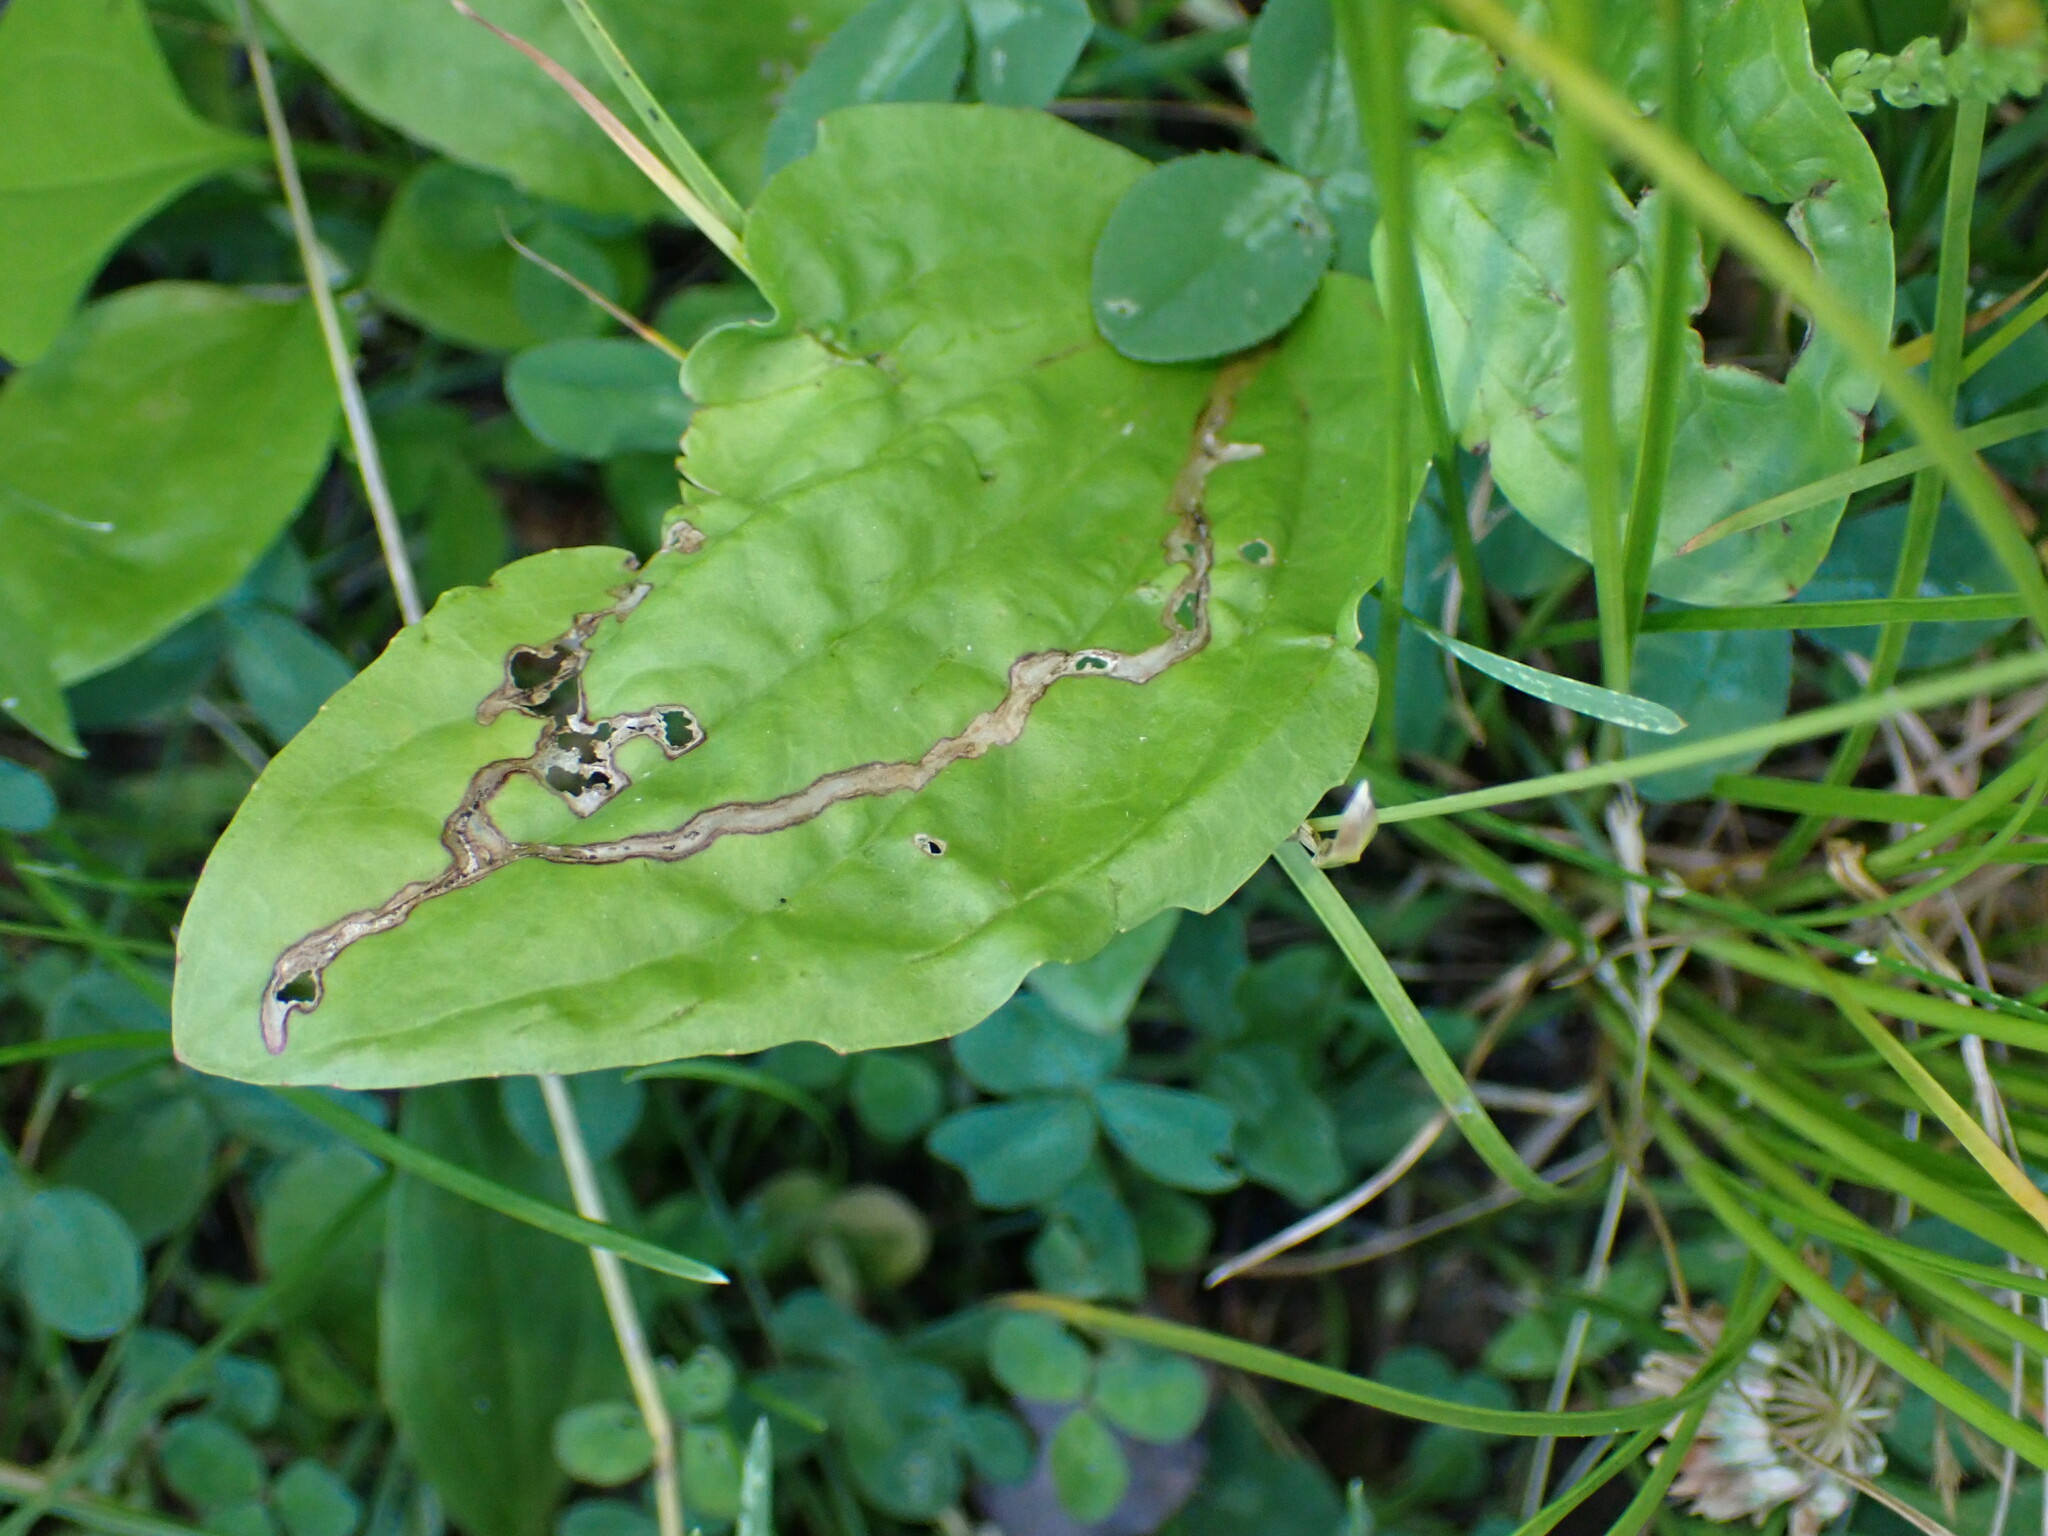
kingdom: Animalia
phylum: Arthropoda
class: Insecta
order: Coleoptera
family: Chrysomelidae
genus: Dibolia
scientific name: Dibolia borealis
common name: Northern plantain flea beetle
